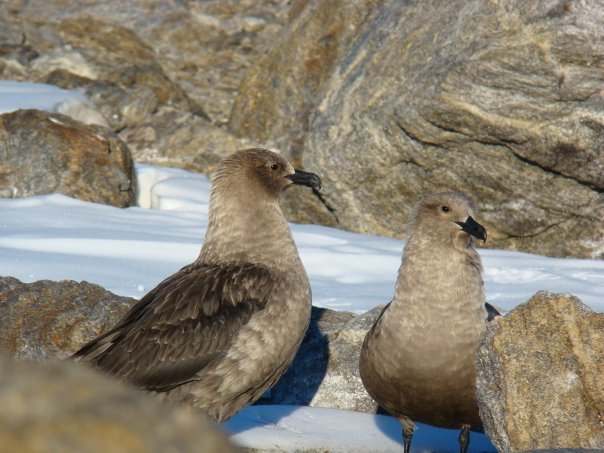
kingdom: Animalia
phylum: Chordata
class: Aves
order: Charadriiformes
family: Stercorariidae
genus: Stercorarius
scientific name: Stercorarius maccormicki
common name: South polar skua
